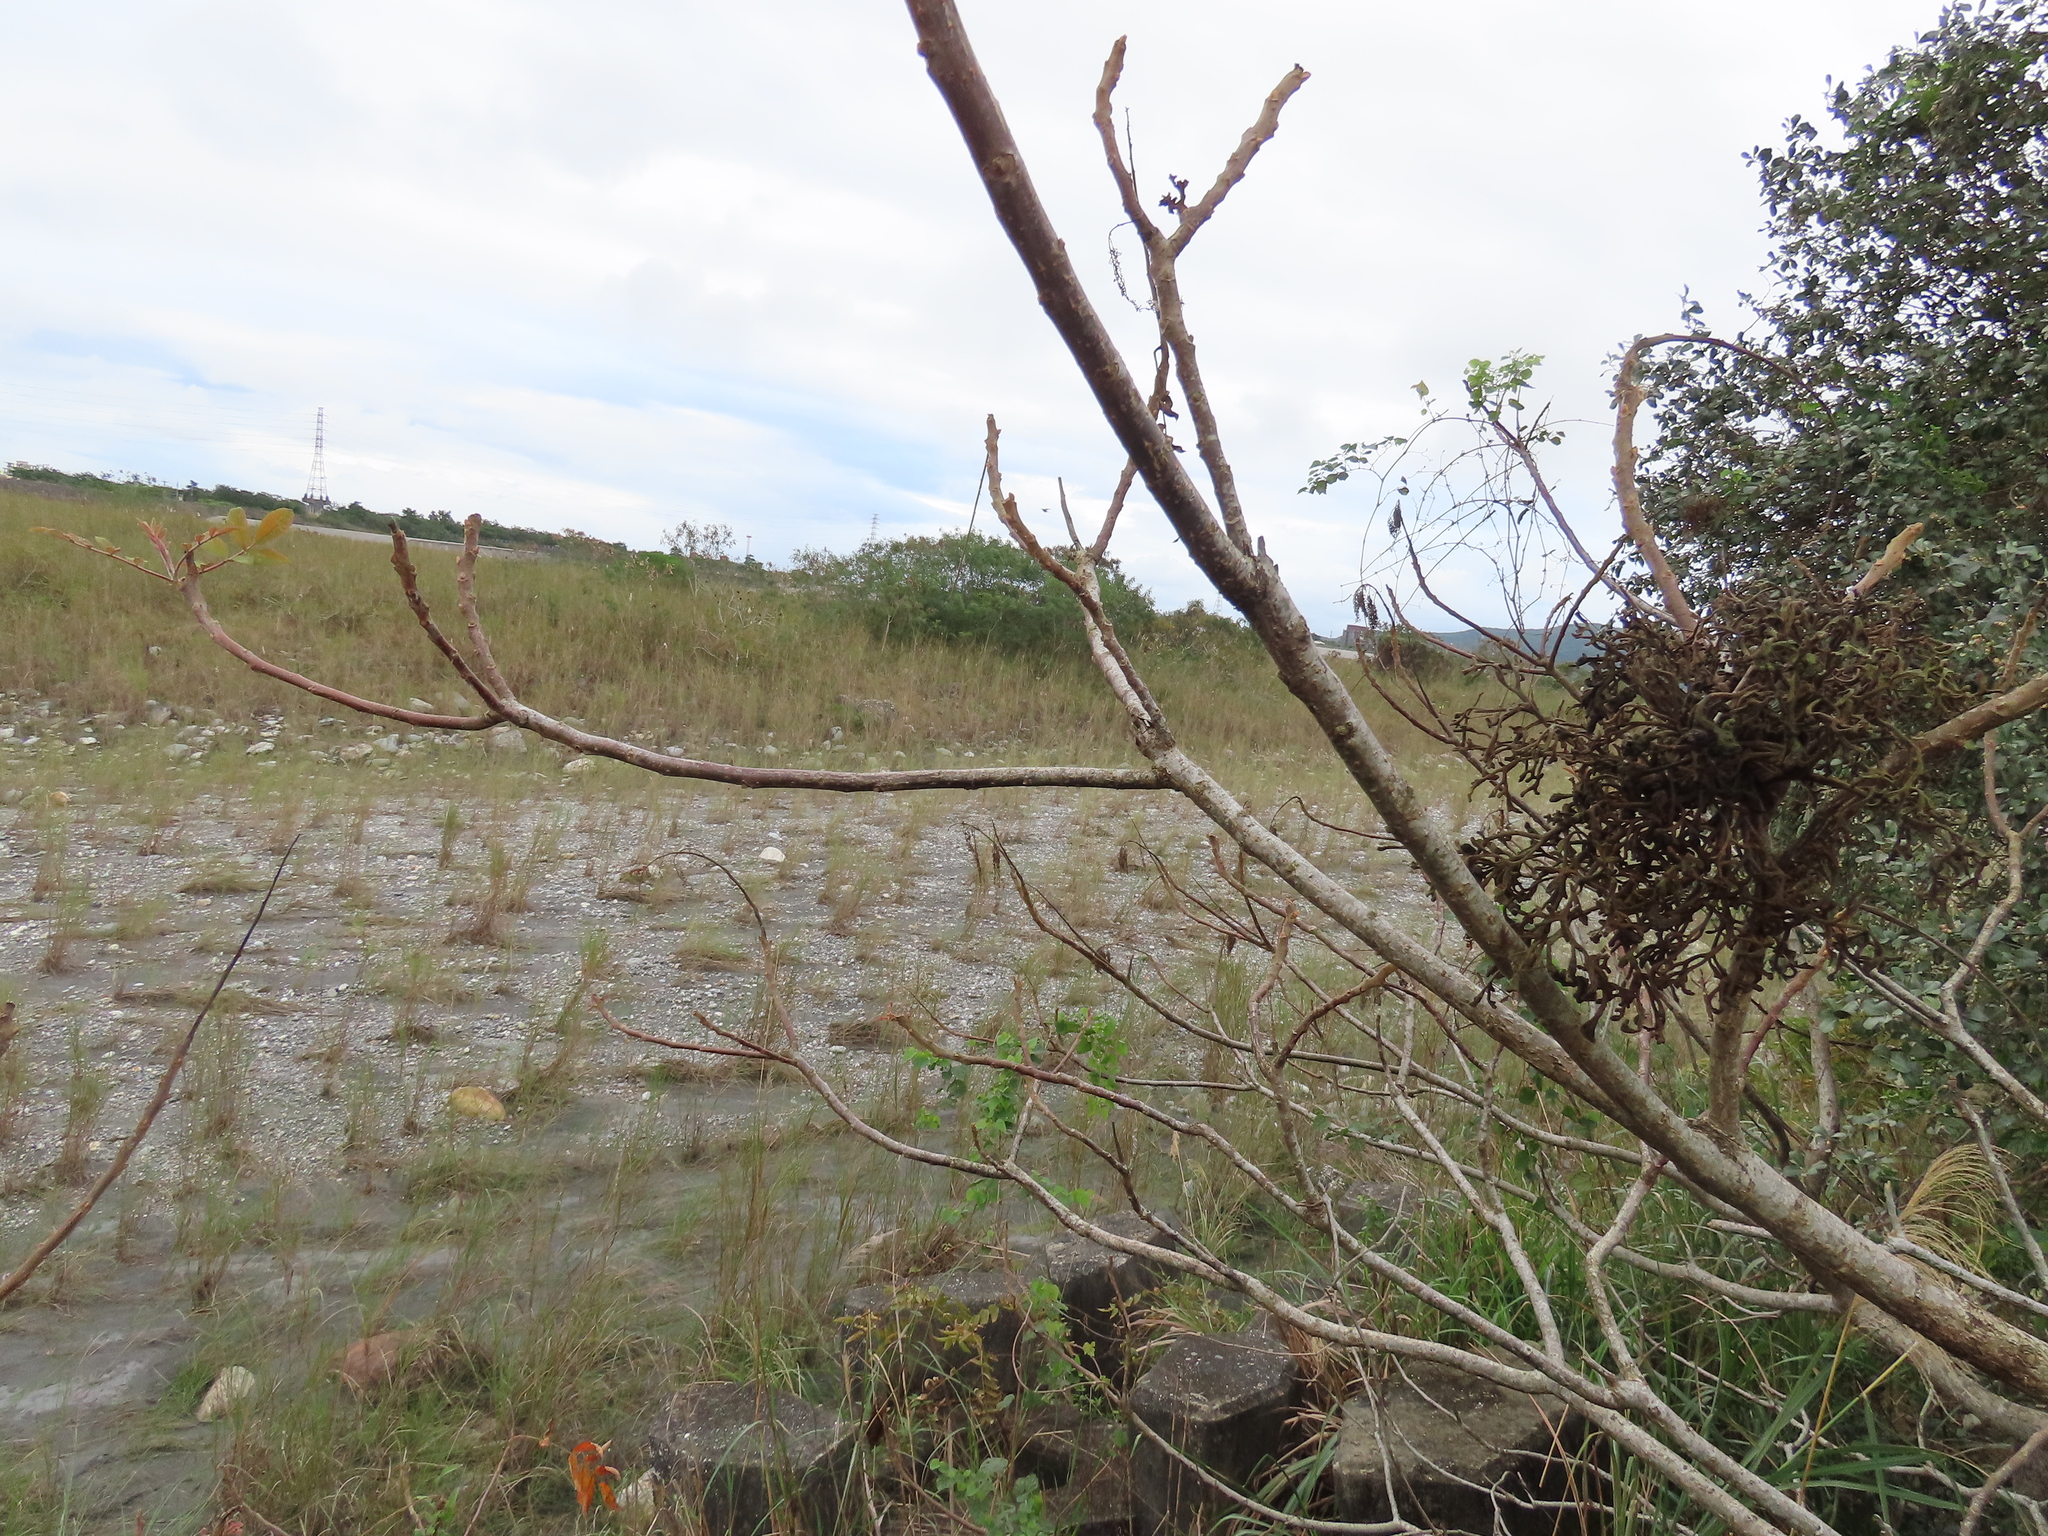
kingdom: Plantae
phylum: Tracheophyta
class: Magnoliopsida
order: Sapindales
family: Anacardiaceae
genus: Rhus
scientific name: Rhus chinensis
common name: Chinese gall
